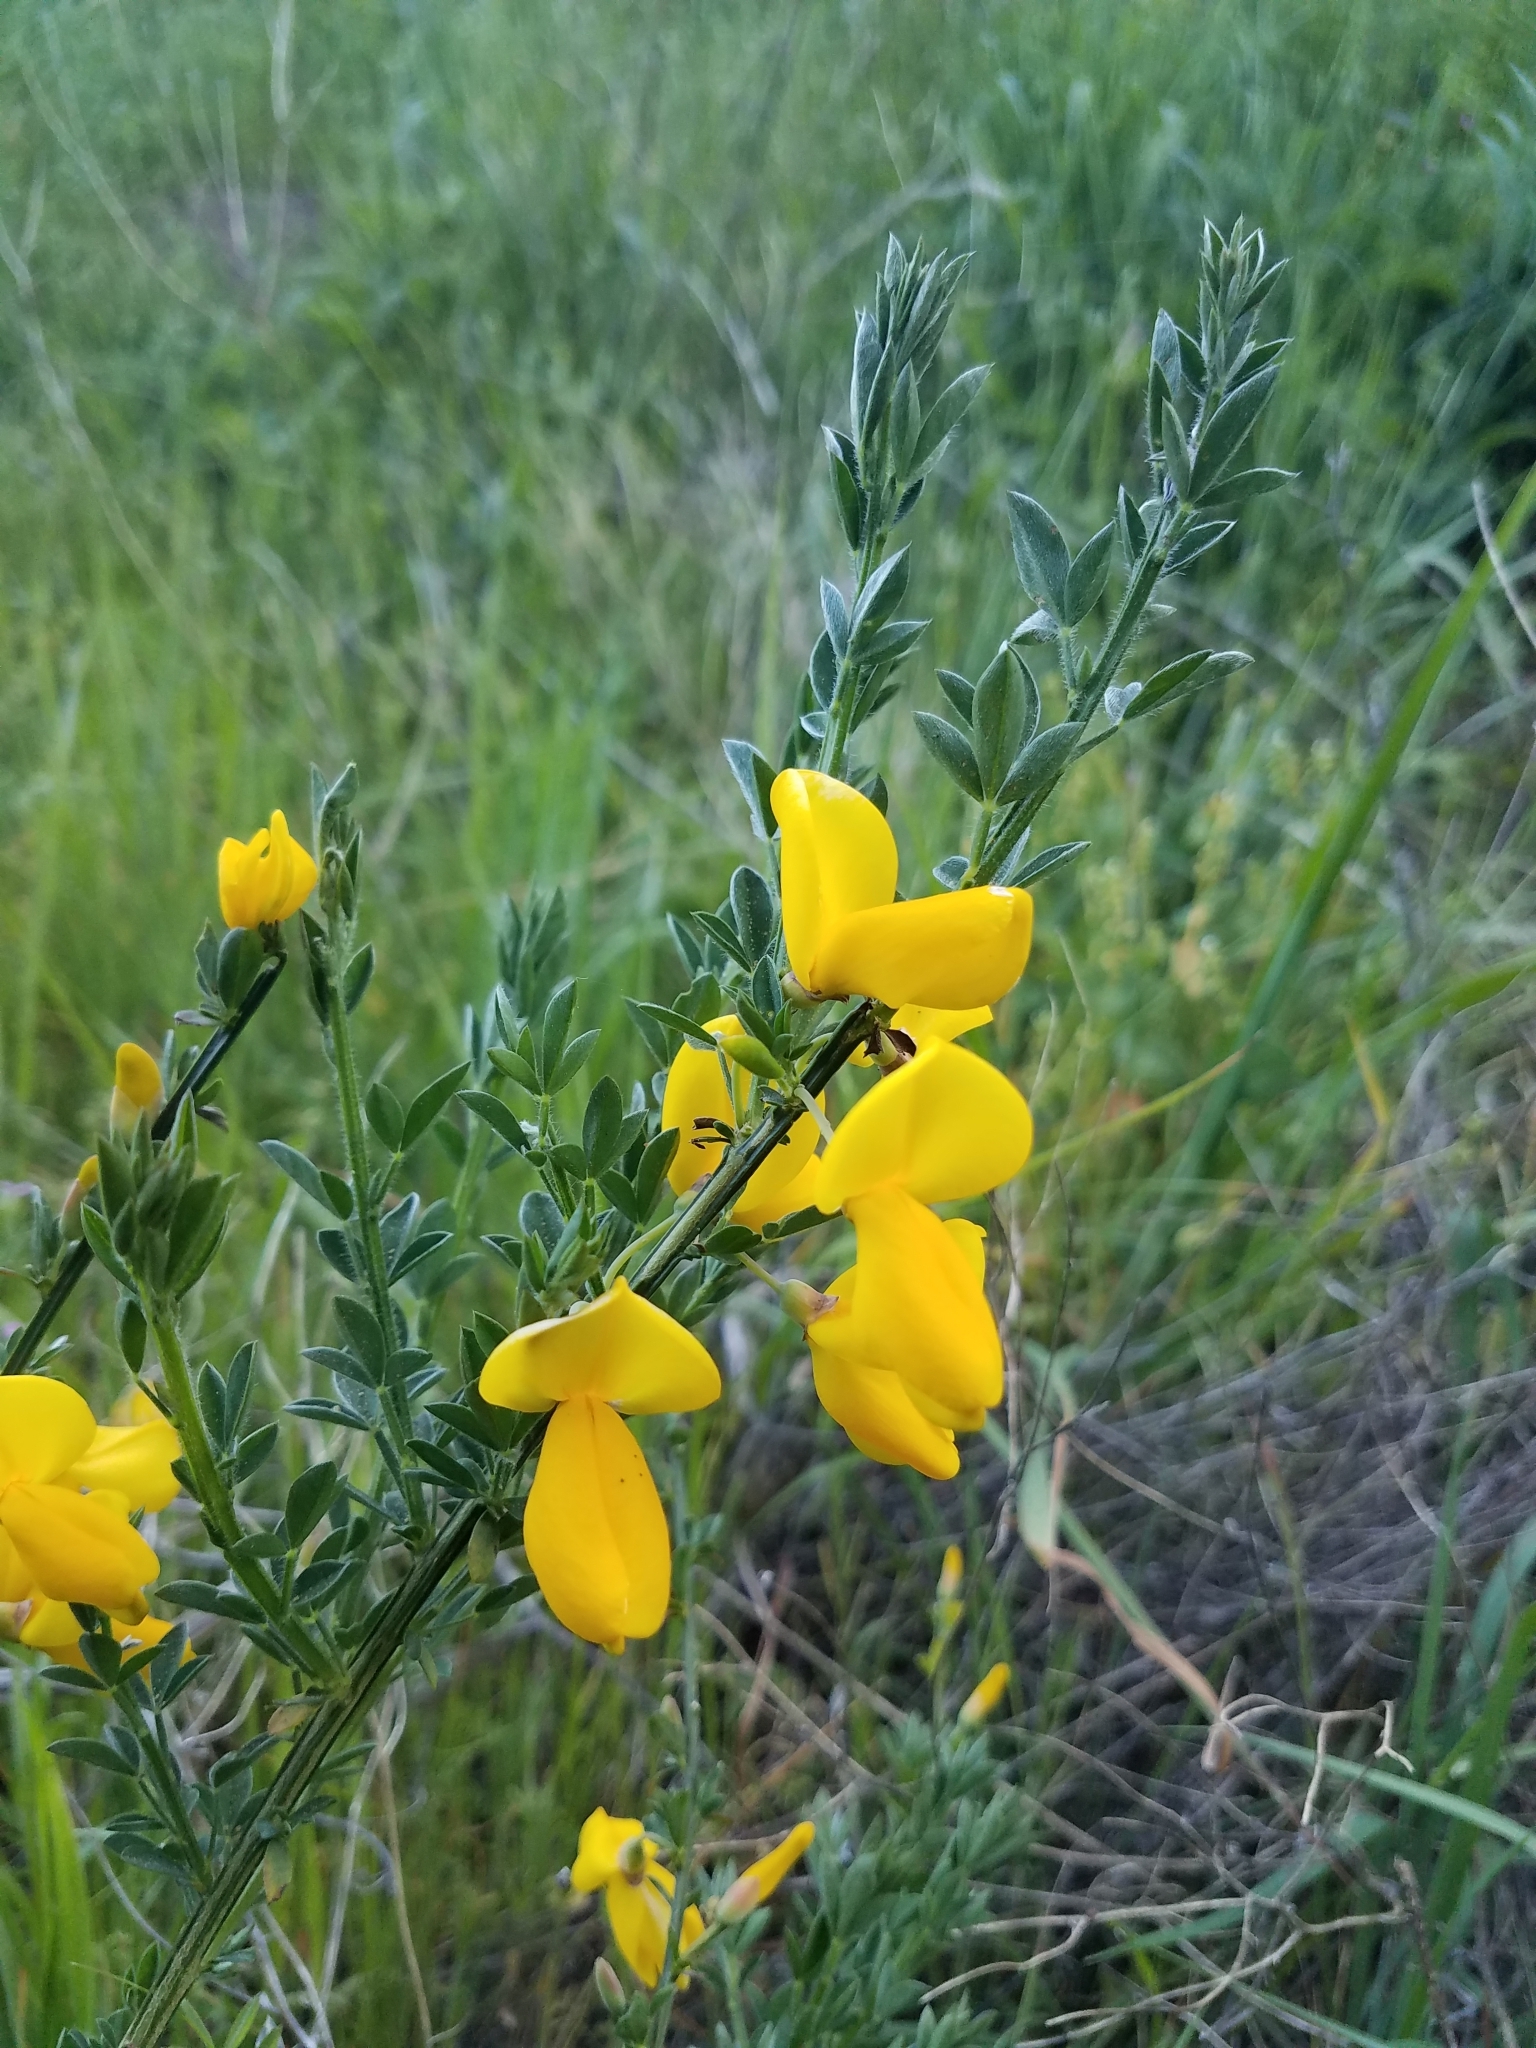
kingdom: Plantae
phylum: Tracheophyta
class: Magnoliopsida
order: Fabales
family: Fabaceae
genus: Cytisus
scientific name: Cytisus scoparius
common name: Scotch broom
